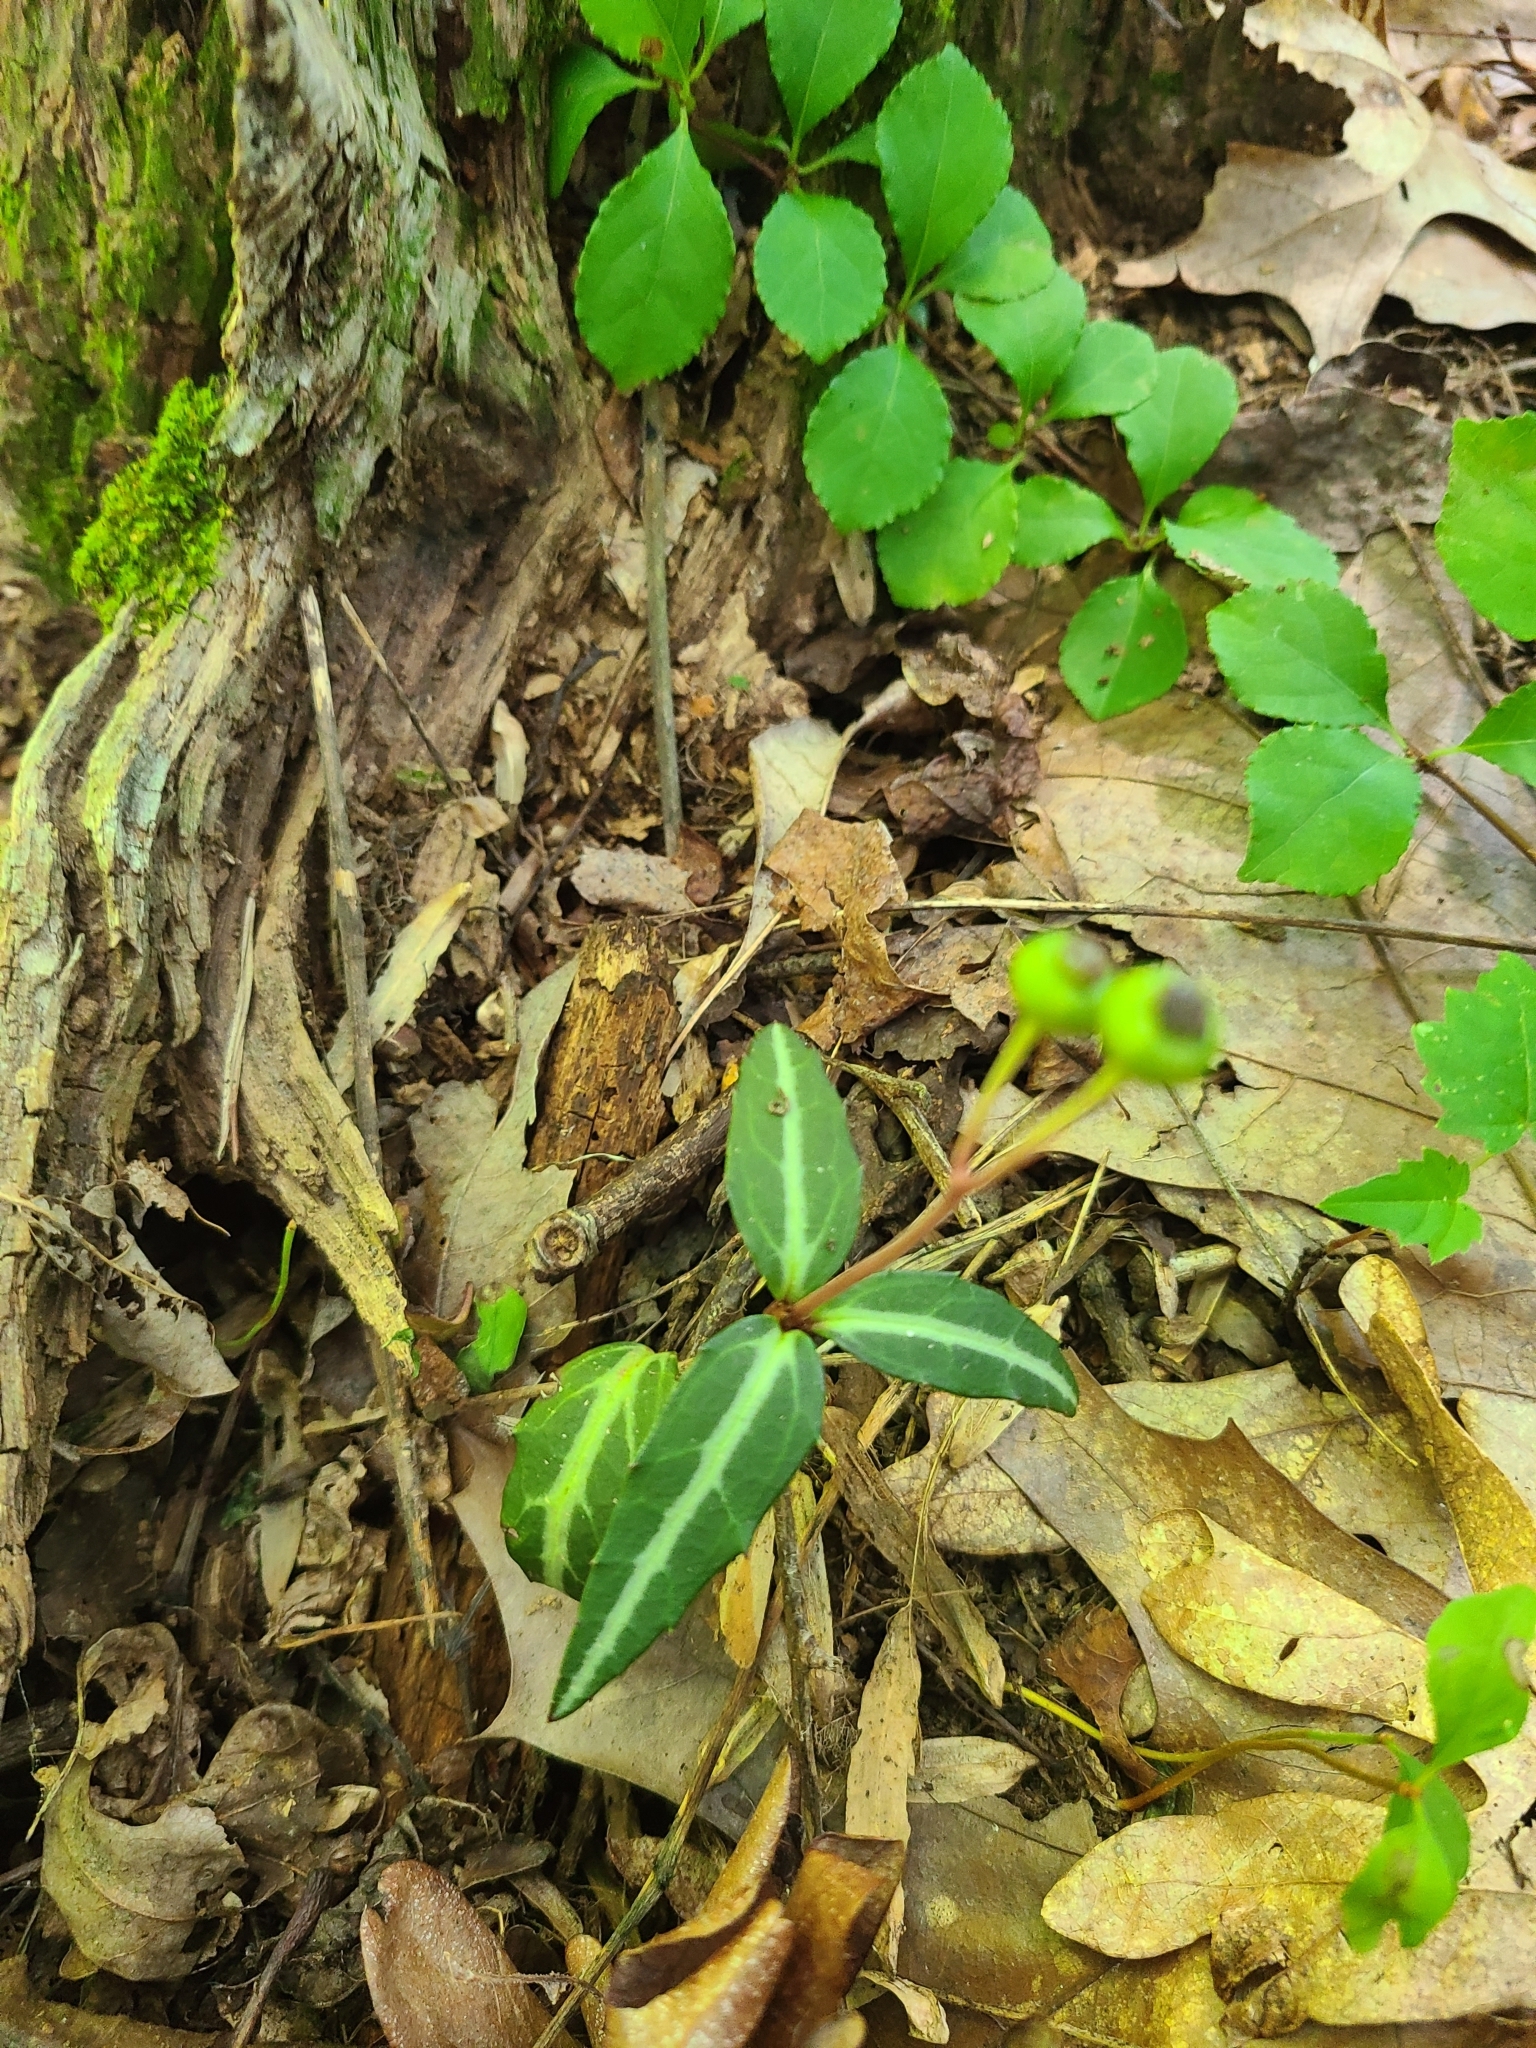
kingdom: Plantae
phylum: Tracheophyta
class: Magnoliopsida
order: Ericales
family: Ericaceae
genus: Chimaphila
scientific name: Chimaphila maculata
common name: Spotted pipsissewa
